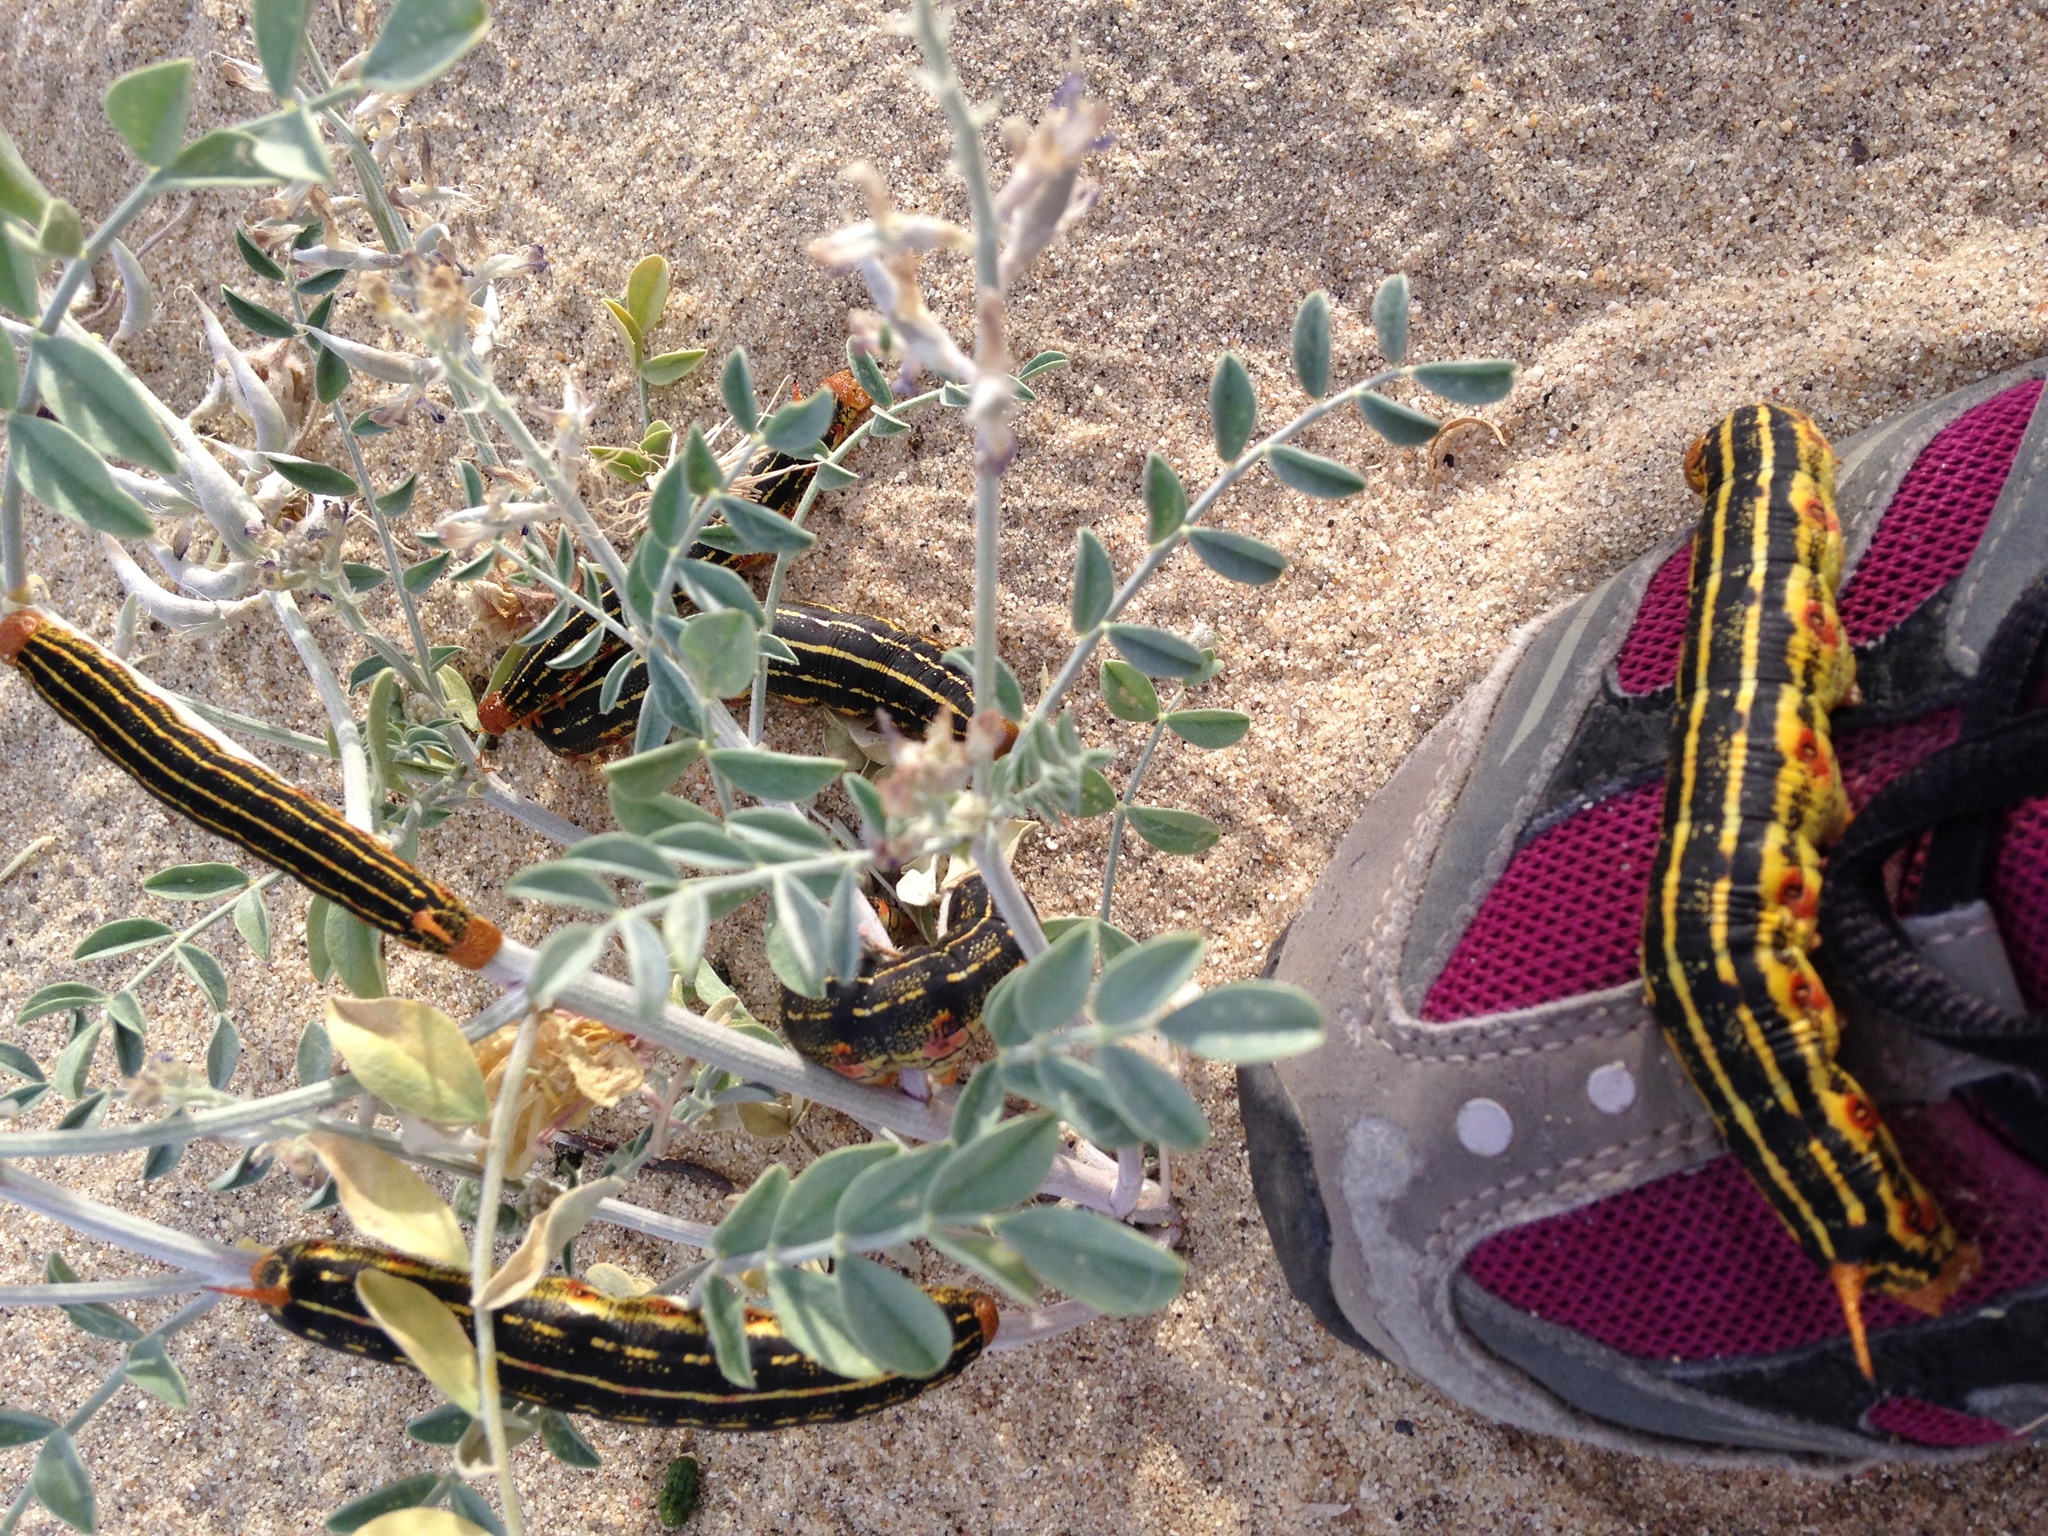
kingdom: Plantae
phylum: Tracheophyta
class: Magnoliopsida
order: Fabales
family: Fabaceae
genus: Astragalus
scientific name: Astragalus lentiginosus
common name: Freckled milkvetch
